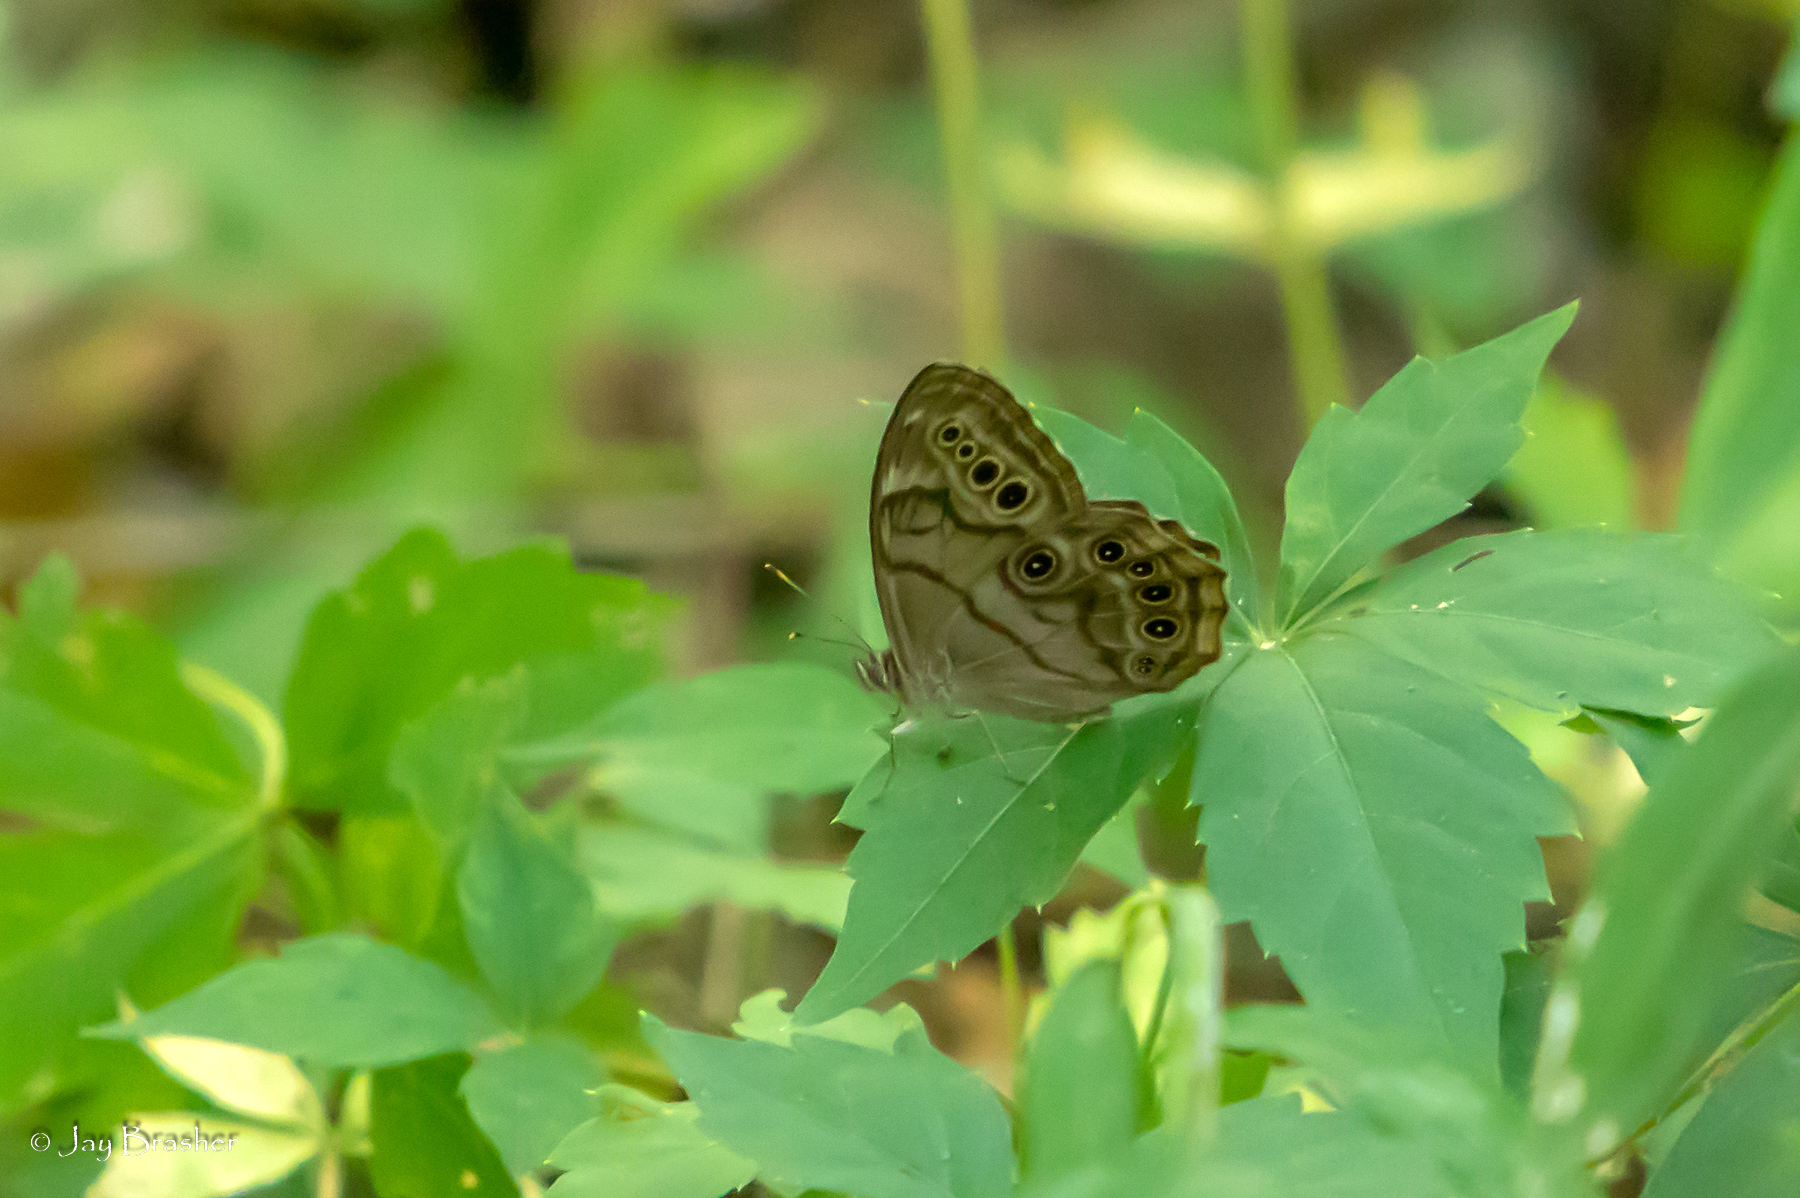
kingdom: Animalia
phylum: Arthropoda
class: Insecta
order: Lepidoptera
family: Nymphalidae
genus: Lethe
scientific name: Lethe anthedon
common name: Northern pearly-eye
